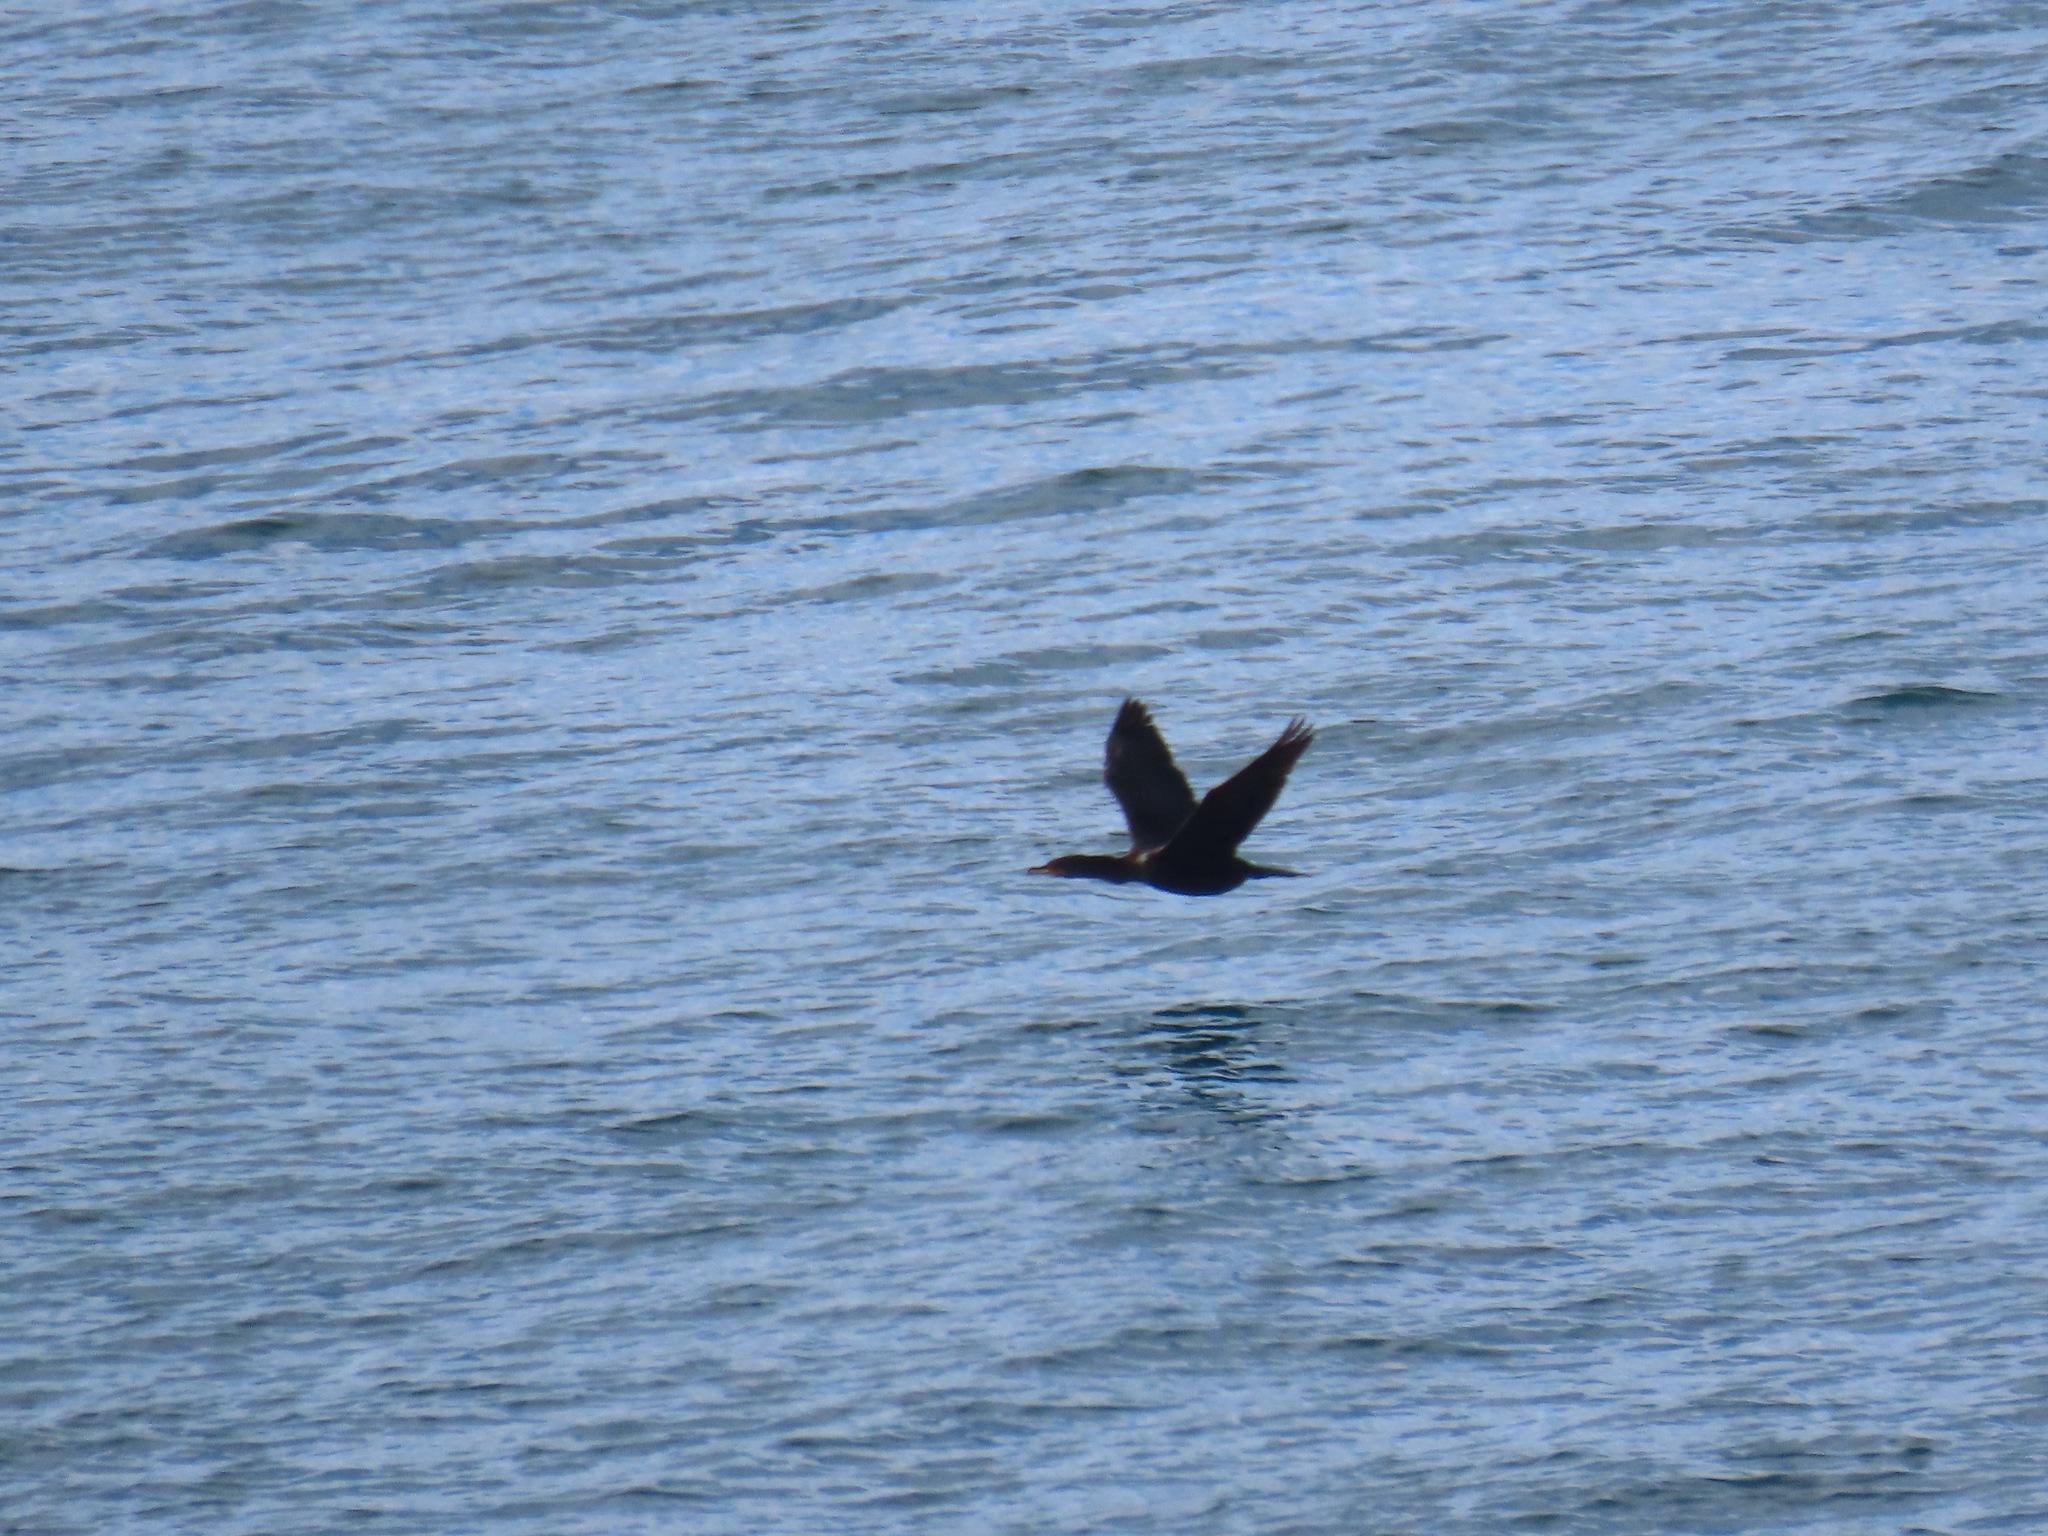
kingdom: Animalia
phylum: Chordata
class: Aves
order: Suliformes
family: Phalacrocoracidae
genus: Phalacrocorax
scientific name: Phalacrocorax auritus
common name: Double-crested cormorant
